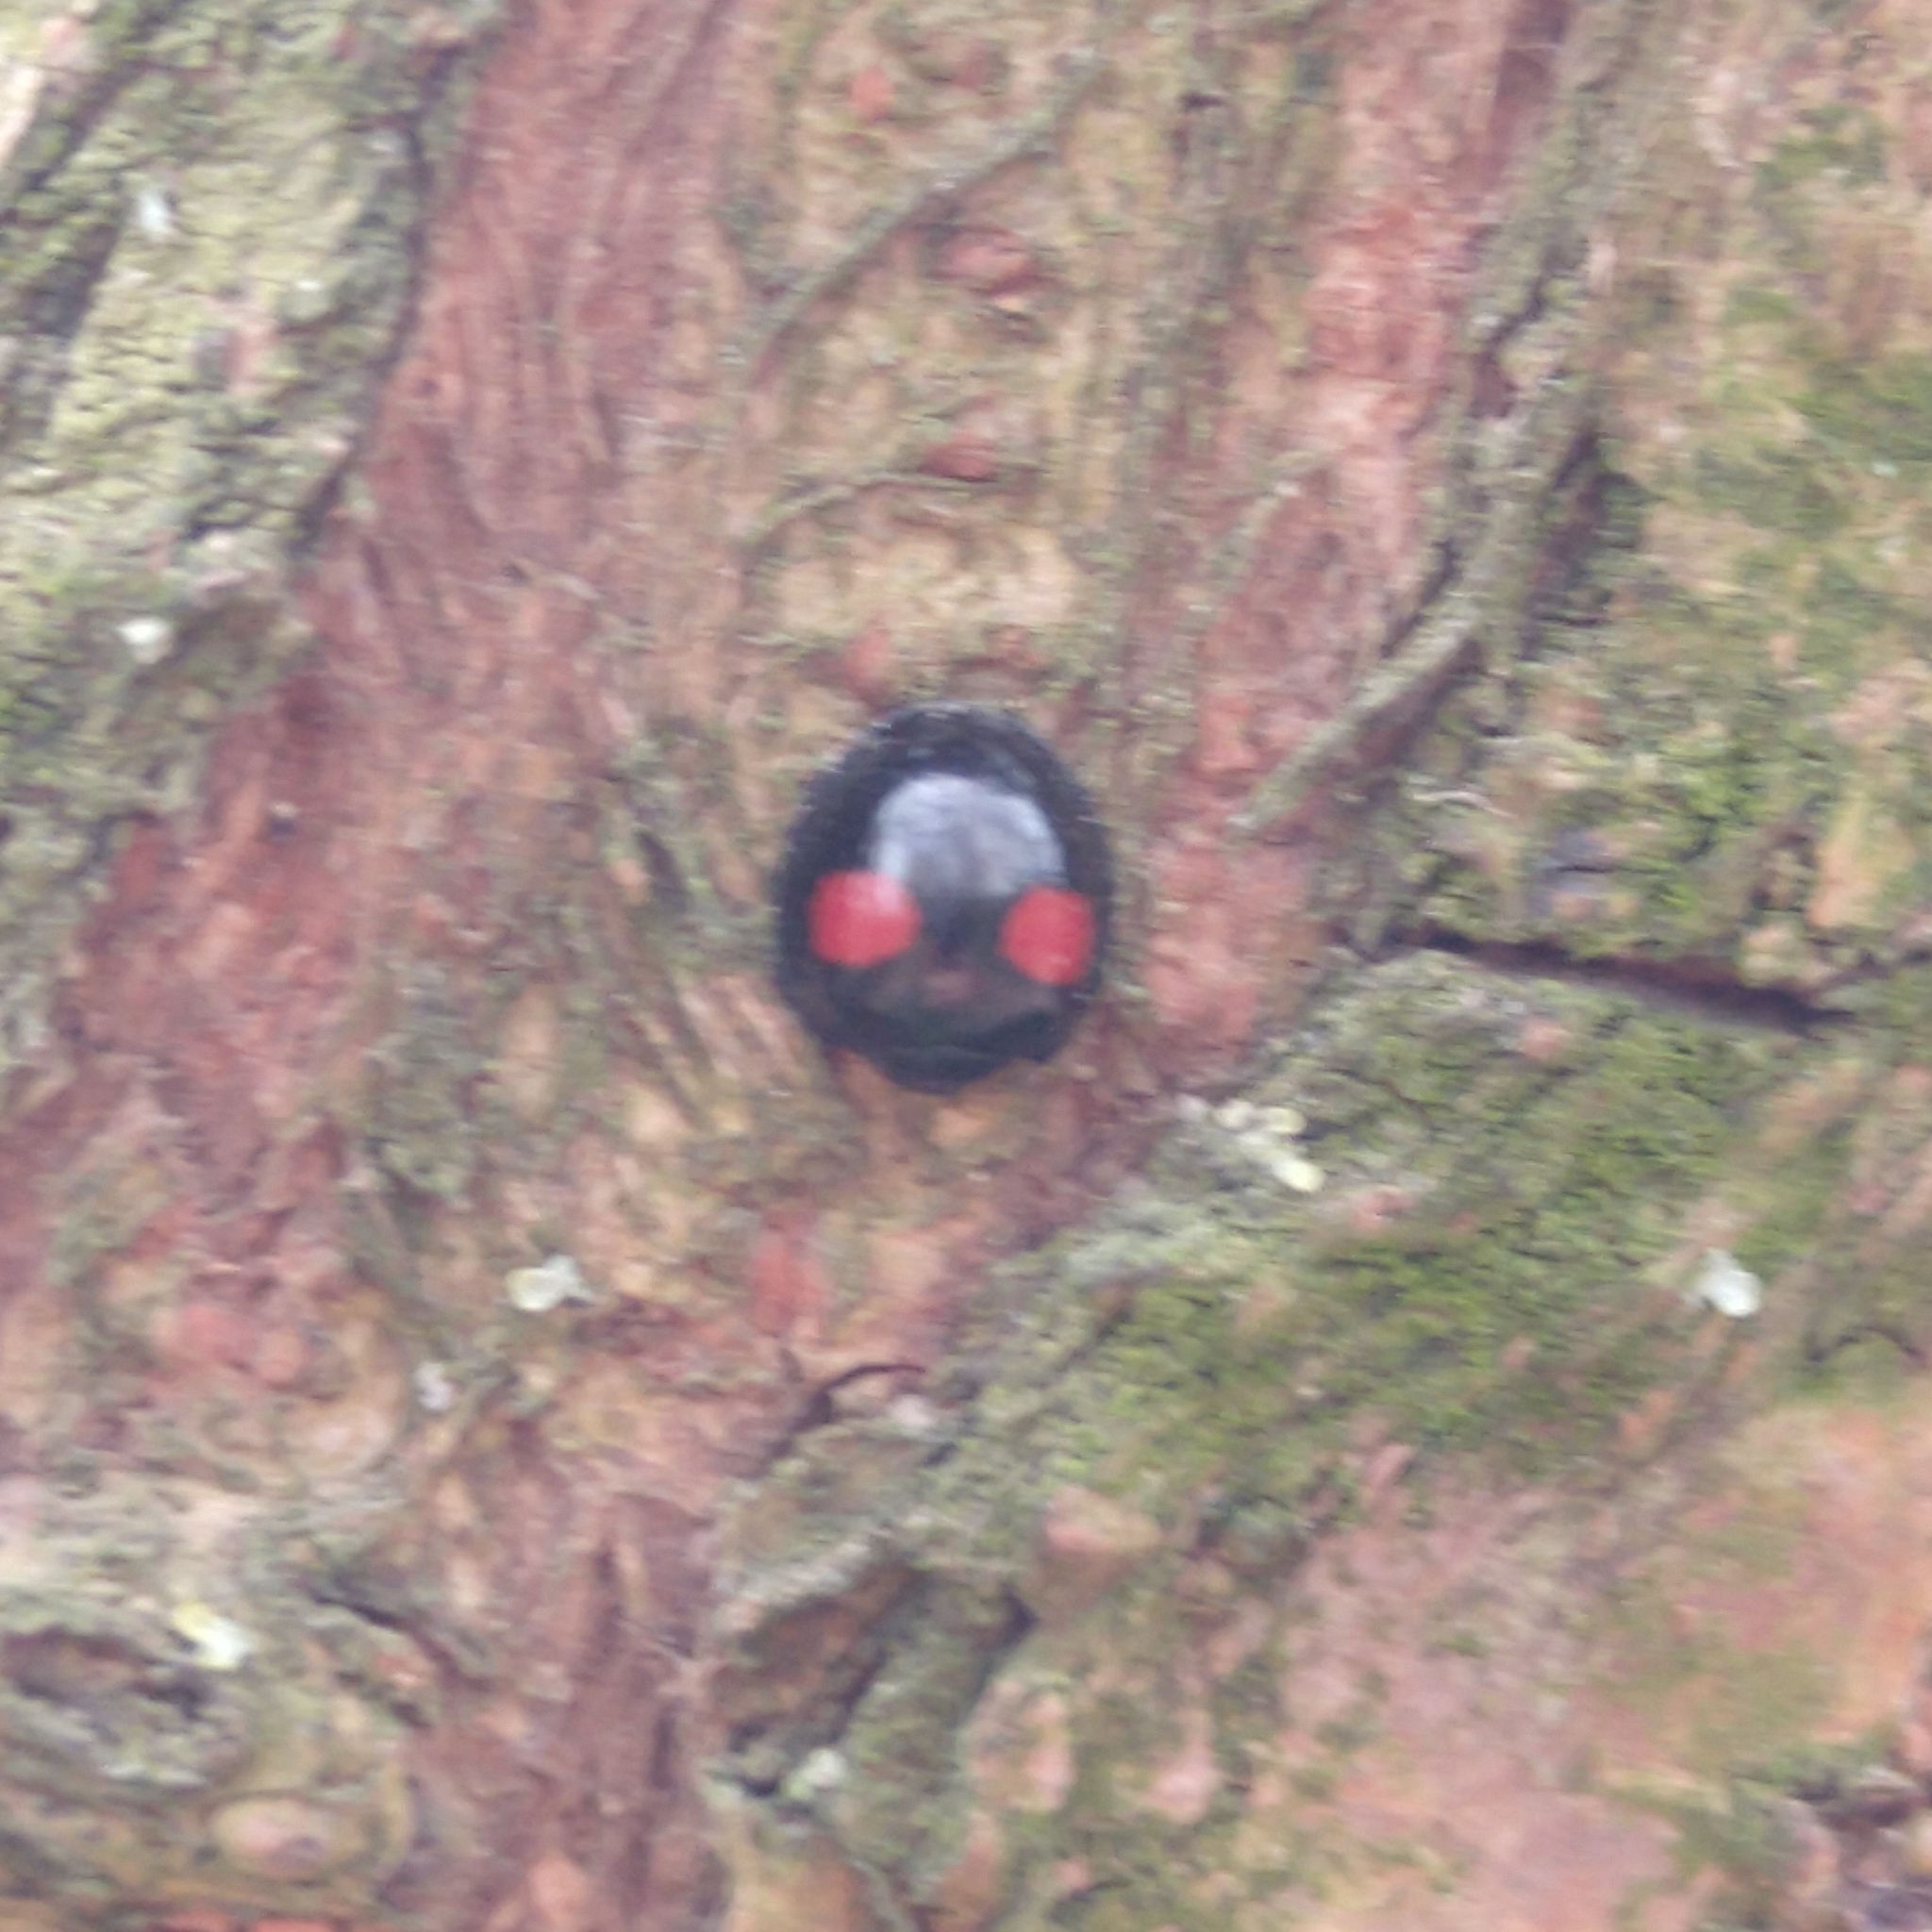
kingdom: Animalia
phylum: Arthropoda
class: Insecta
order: Coleoptera
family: Coccinellidae
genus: Chilocorus
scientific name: Chilocorus renipustulatus
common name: Kidney-spot ladybird
